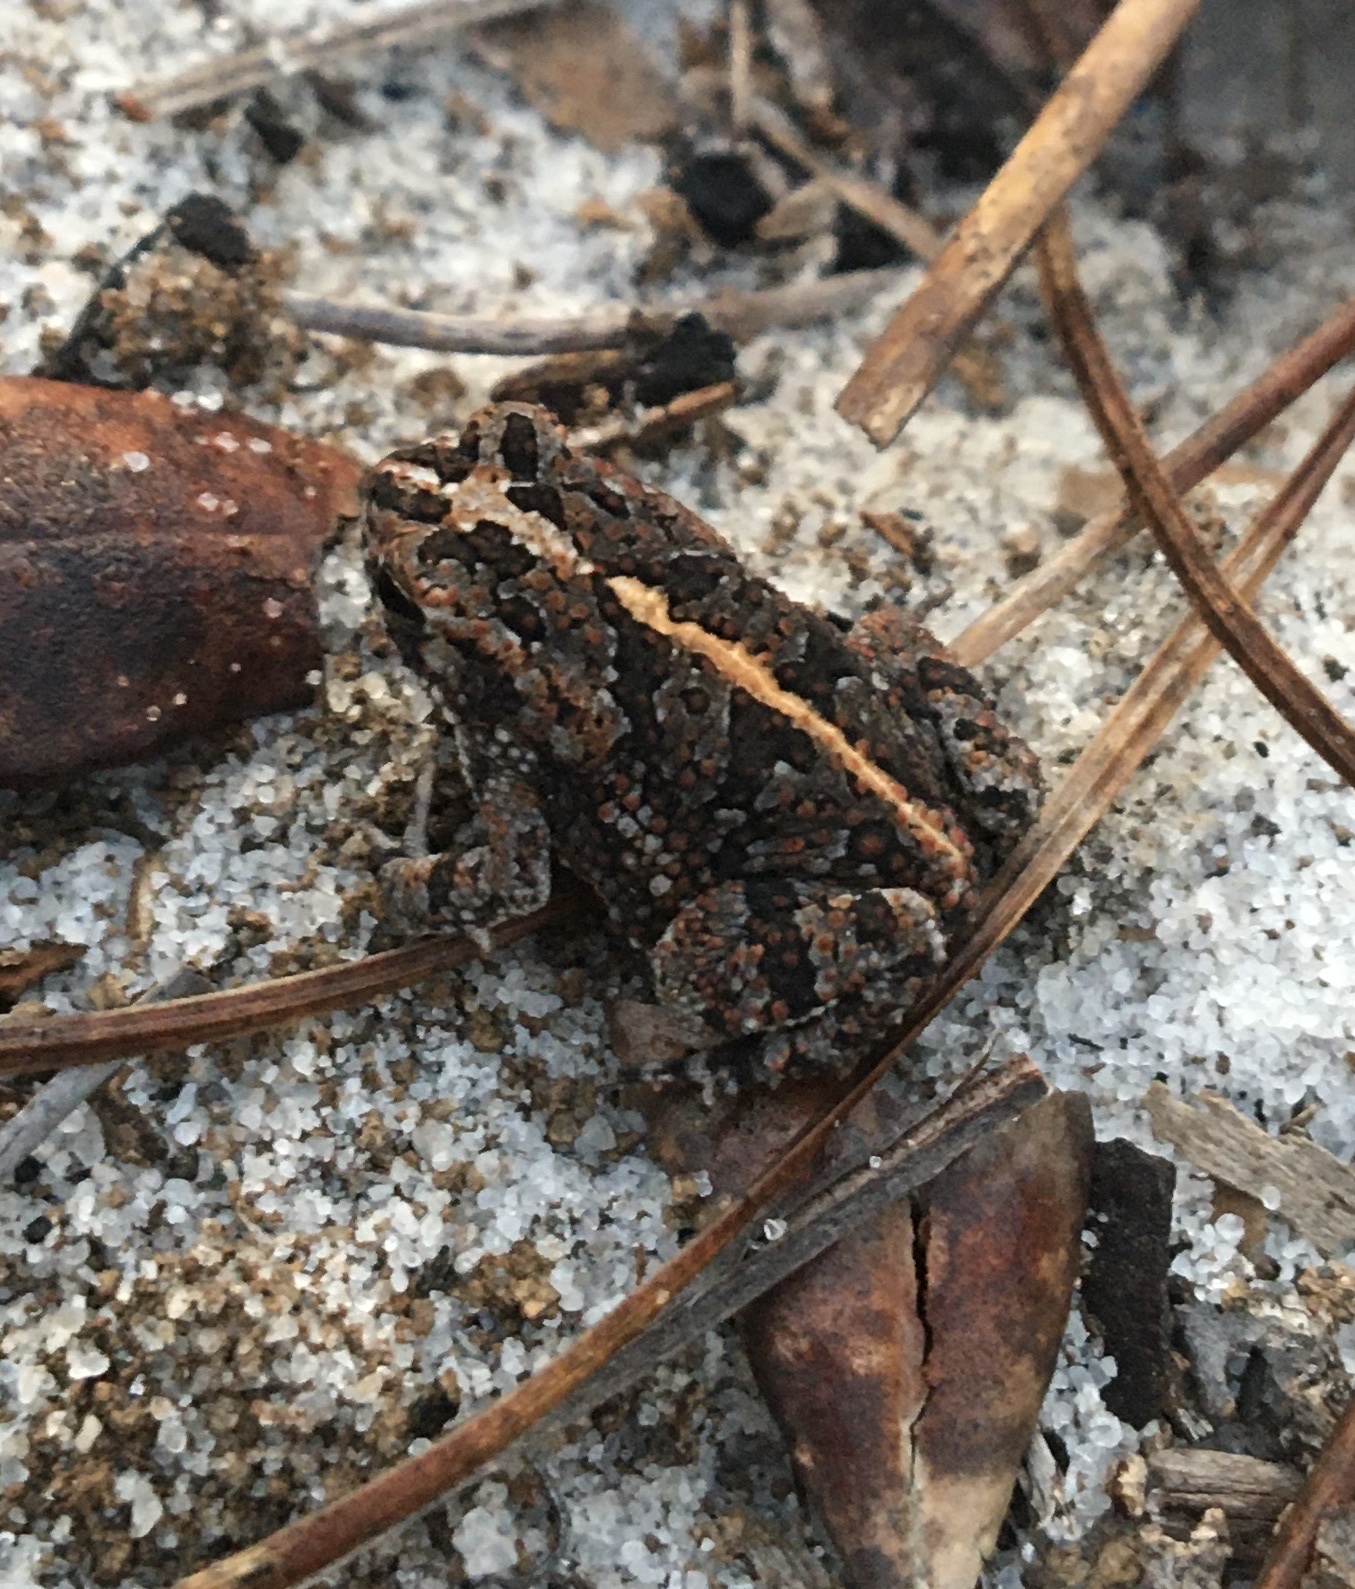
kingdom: Animalia
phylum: Chordata
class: Amphibia
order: Anura
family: Bufonidae
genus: Anaxyrus
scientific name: Anaxyrus quercicus
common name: Oak toad
